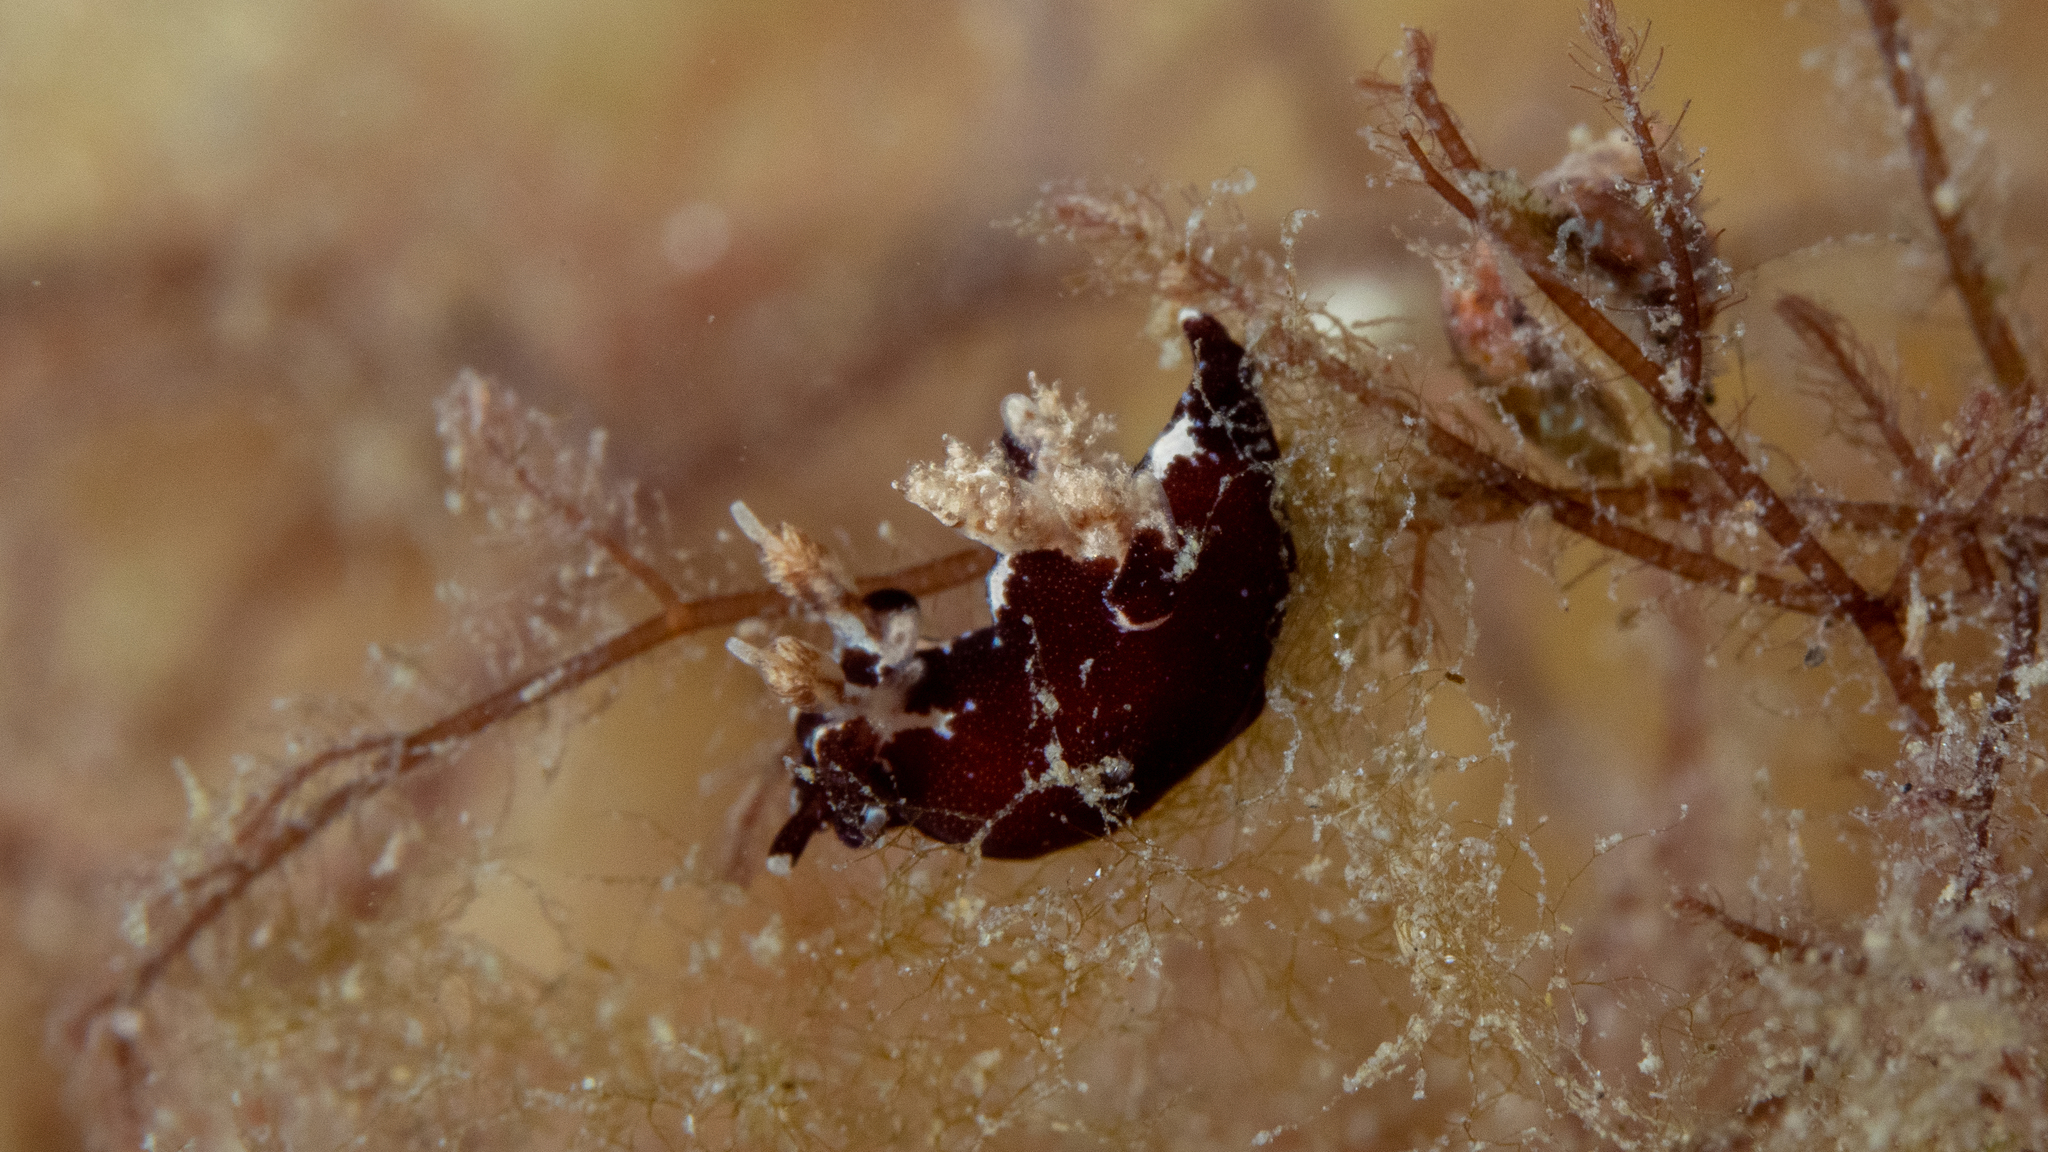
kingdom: Animalia
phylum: Mollusca
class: Gastropoda
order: Nudibranchia
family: Goniodorididae
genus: Trapania
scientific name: Trapania brunnea
